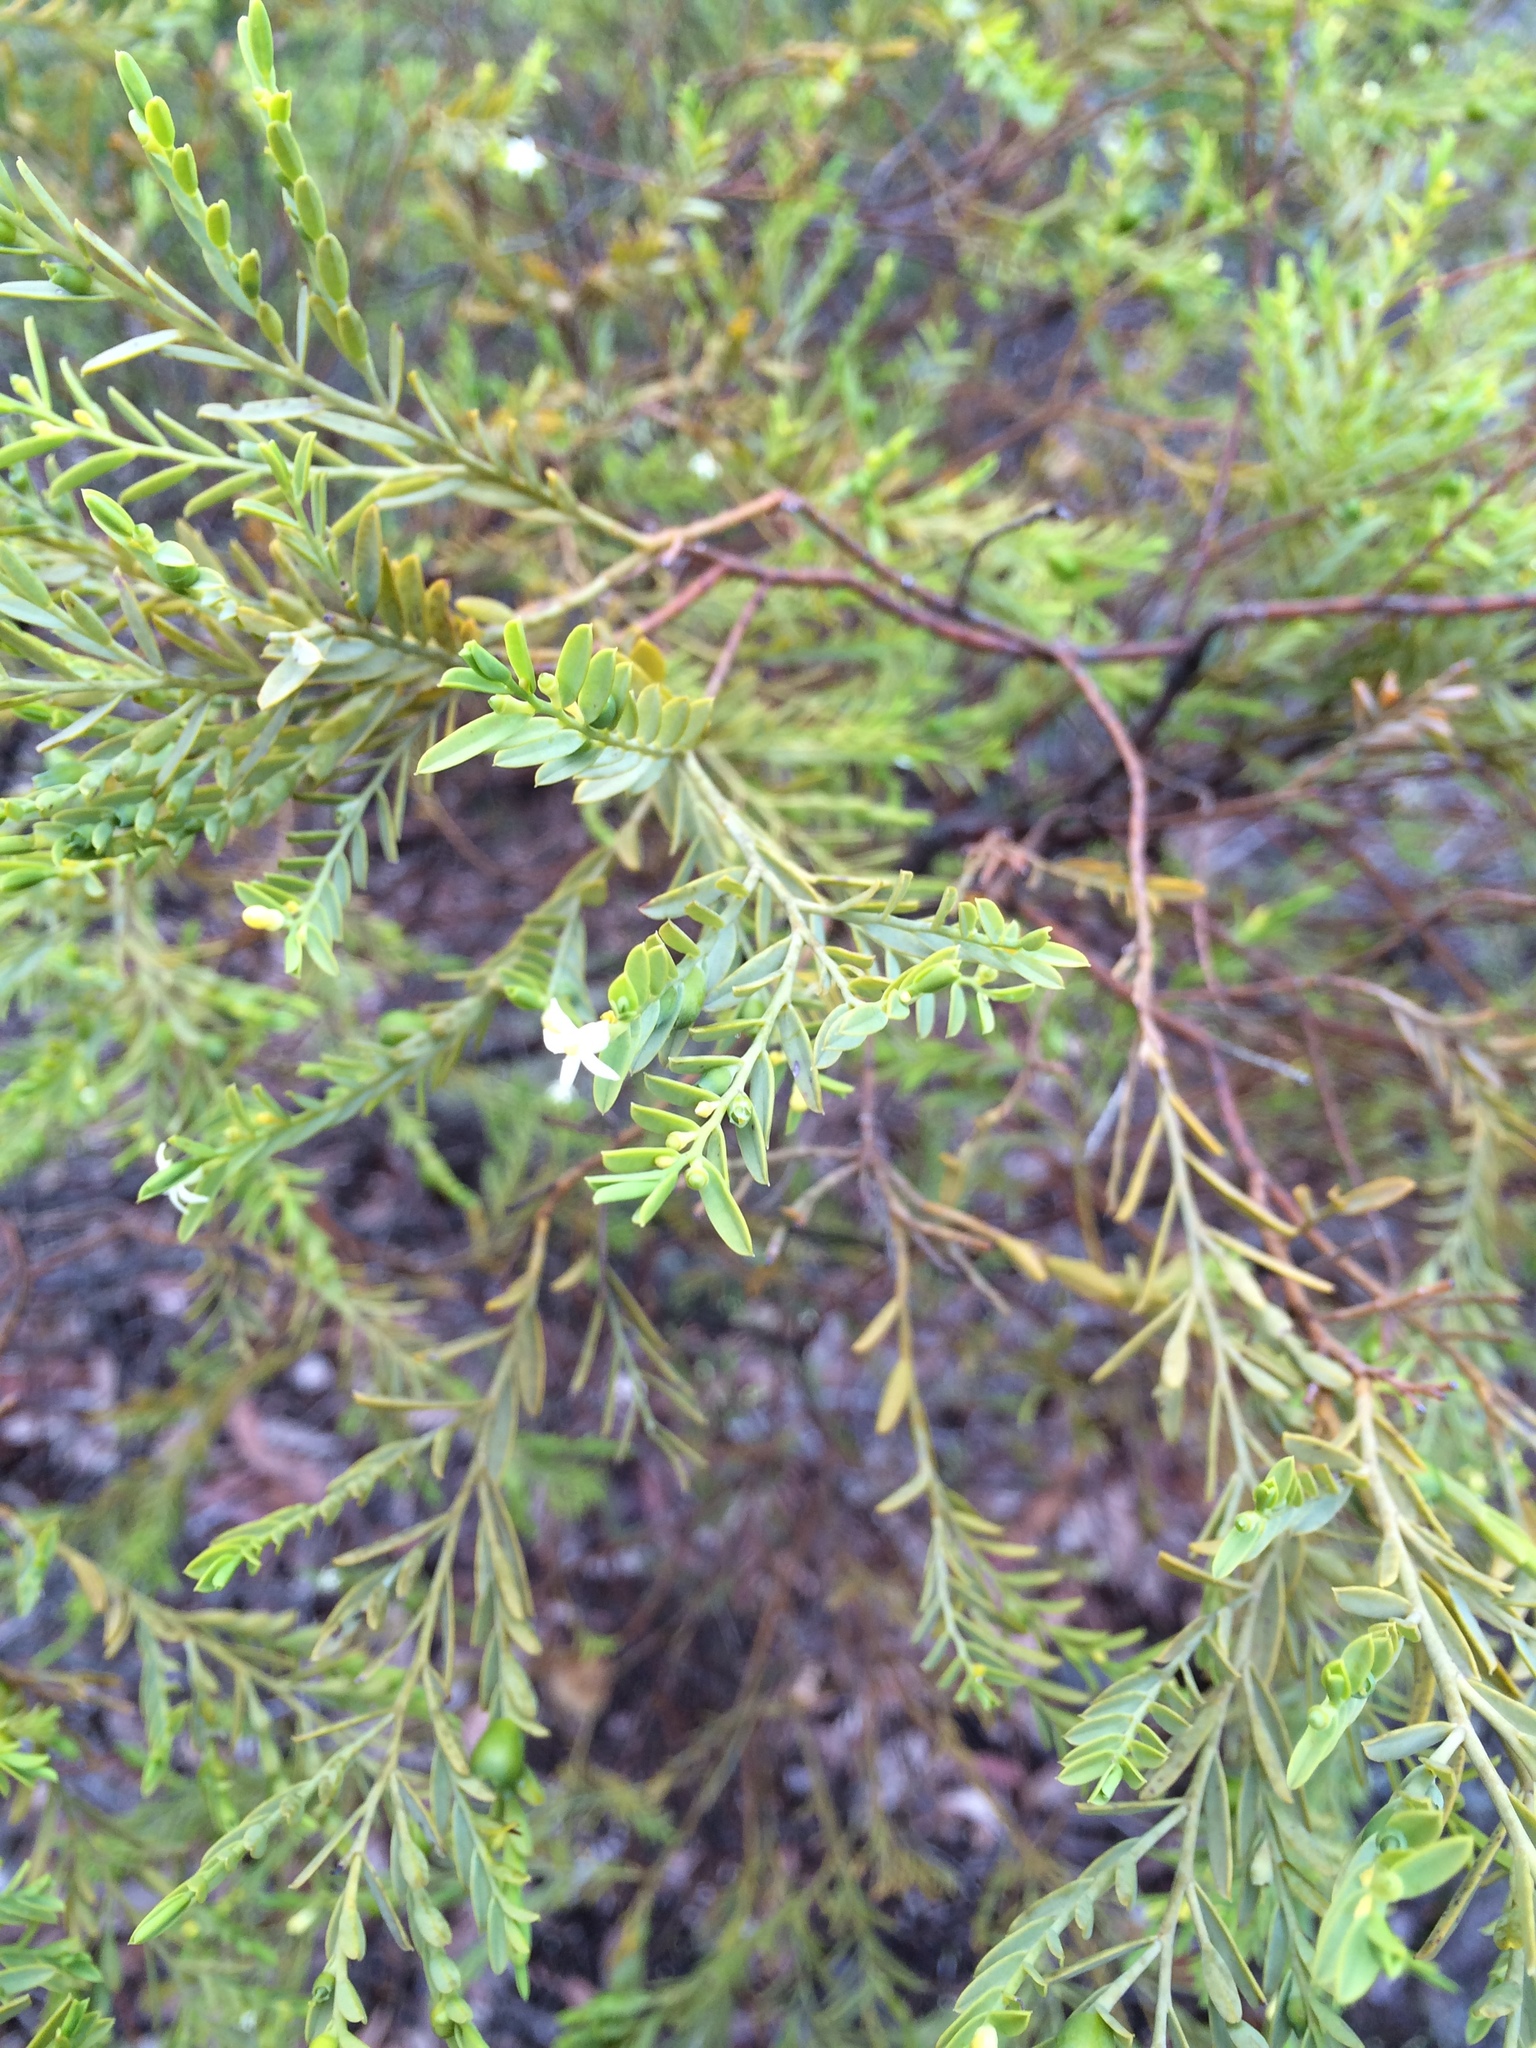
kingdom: Plantae
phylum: Tracheophyta
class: Magnoliopsida
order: Santalales
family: Olacaceae
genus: Olax
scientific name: Olax stricta
